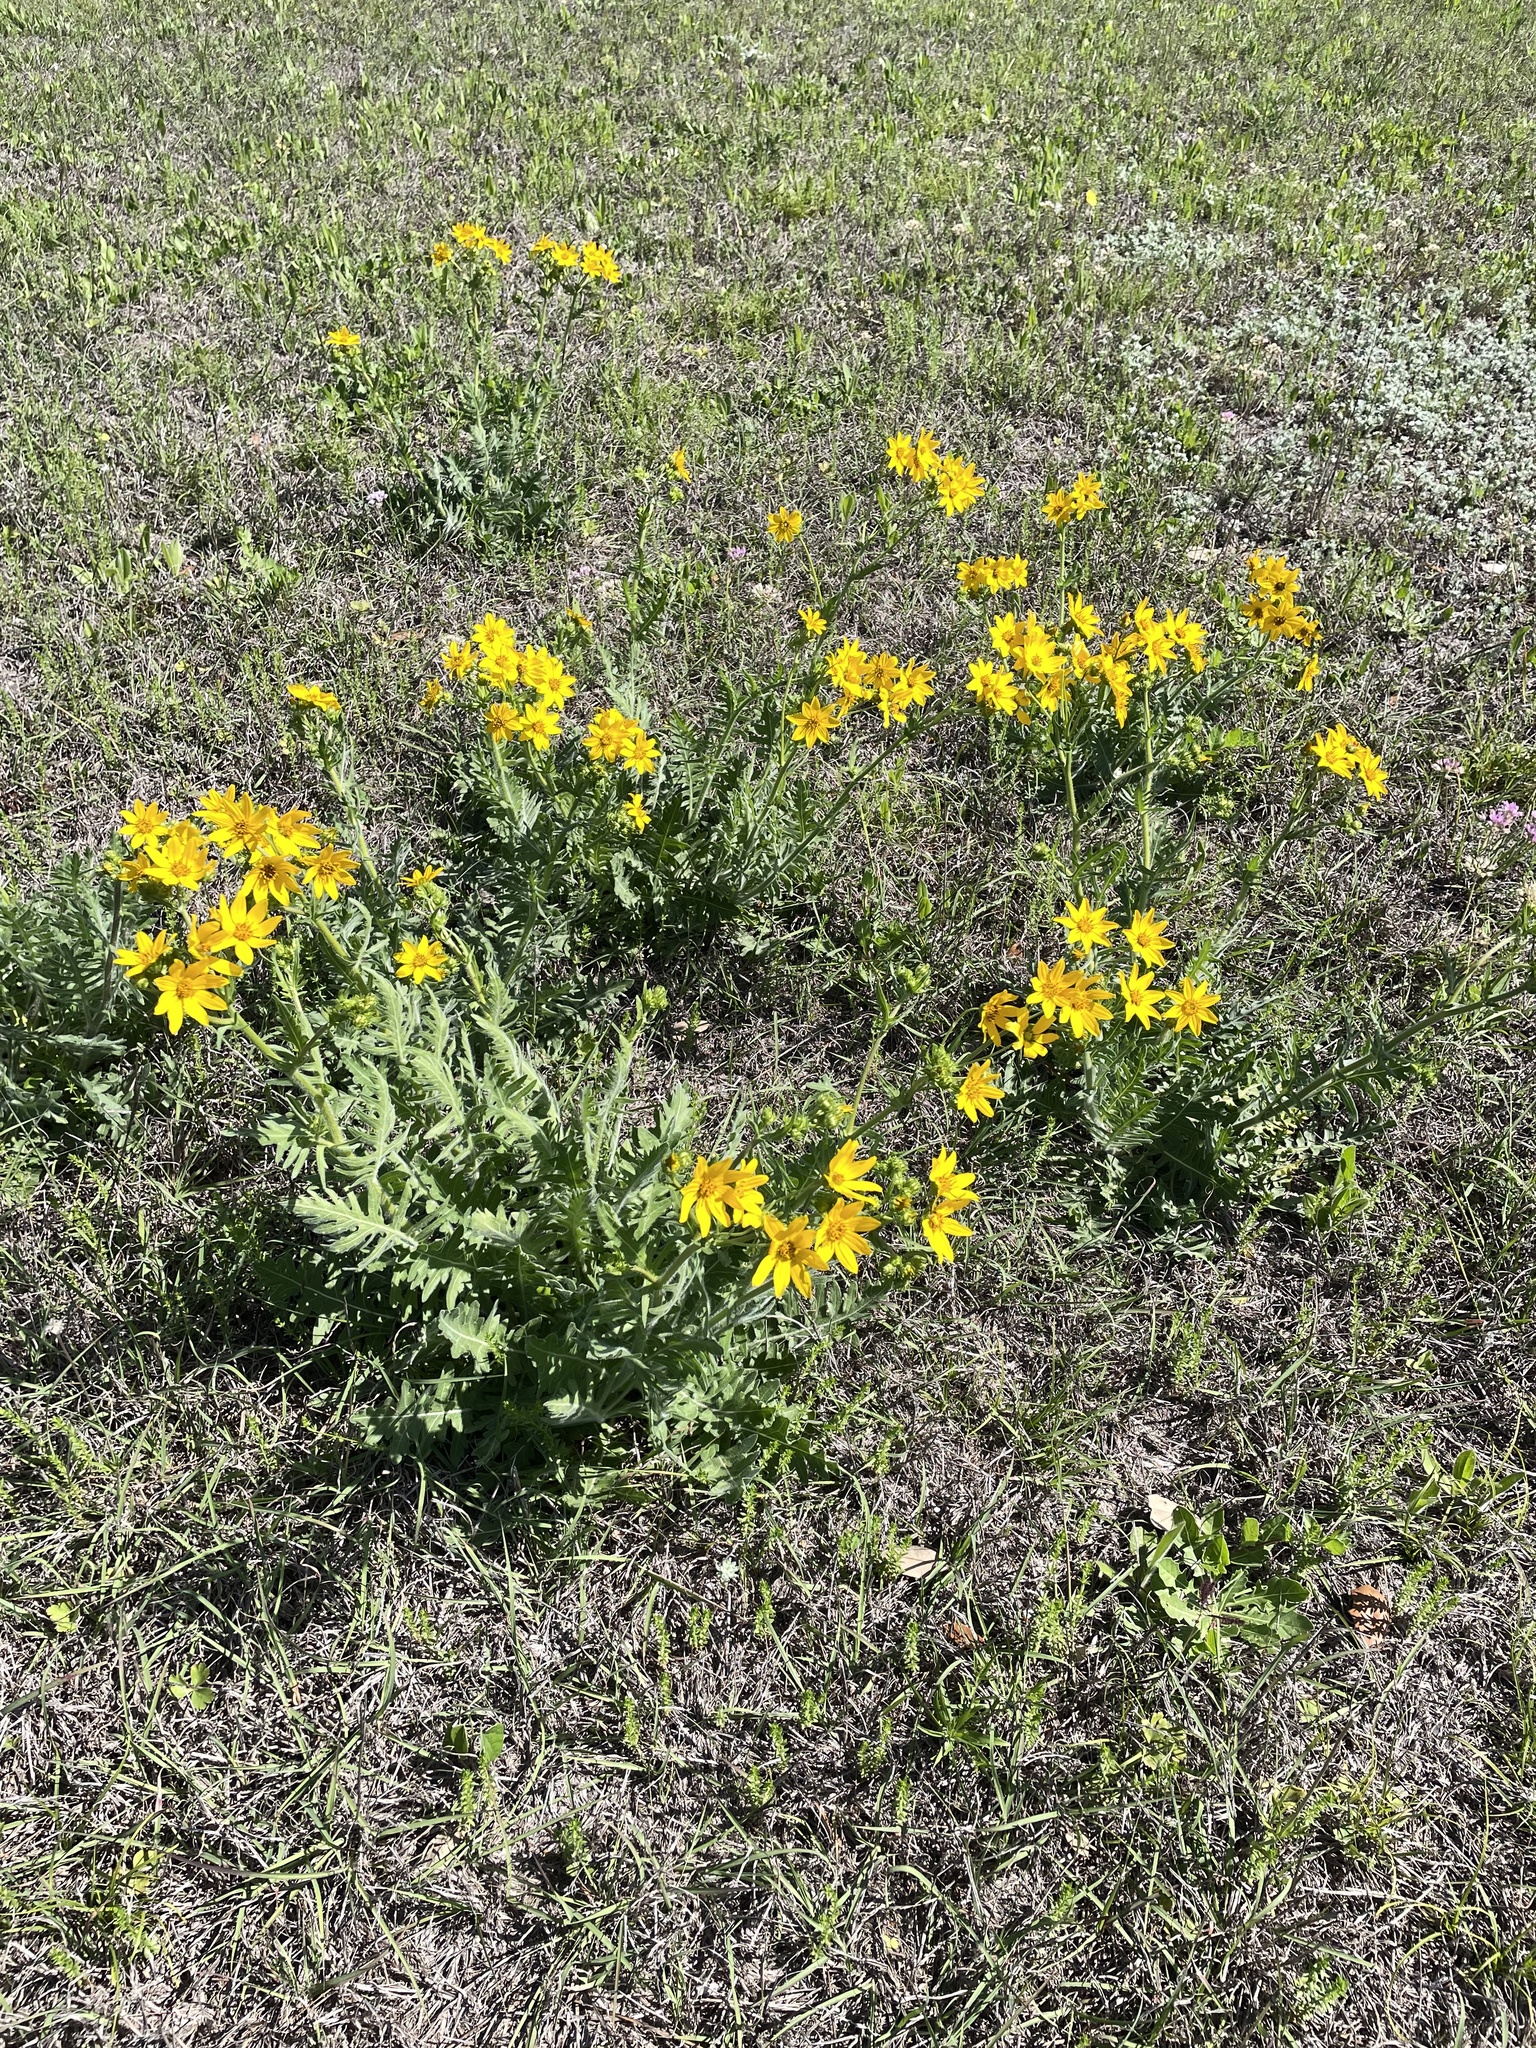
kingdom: Plantae
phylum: Tracheophyta
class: Magnoliopsida
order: Asterales
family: Asteraceae
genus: Engelmannia
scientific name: Engelmannia peristenia
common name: Engelmann's daisy
